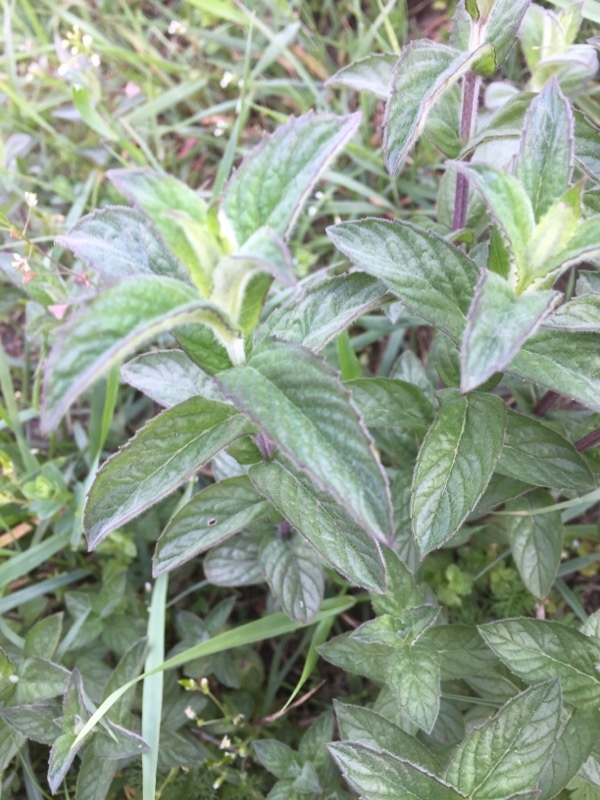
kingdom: Plantae
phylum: Tracheophyta
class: Magnoliopsida
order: Lamiales
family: Lamiaceae
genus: Mentha
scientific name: Mentha longifolia
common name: Horse mint
